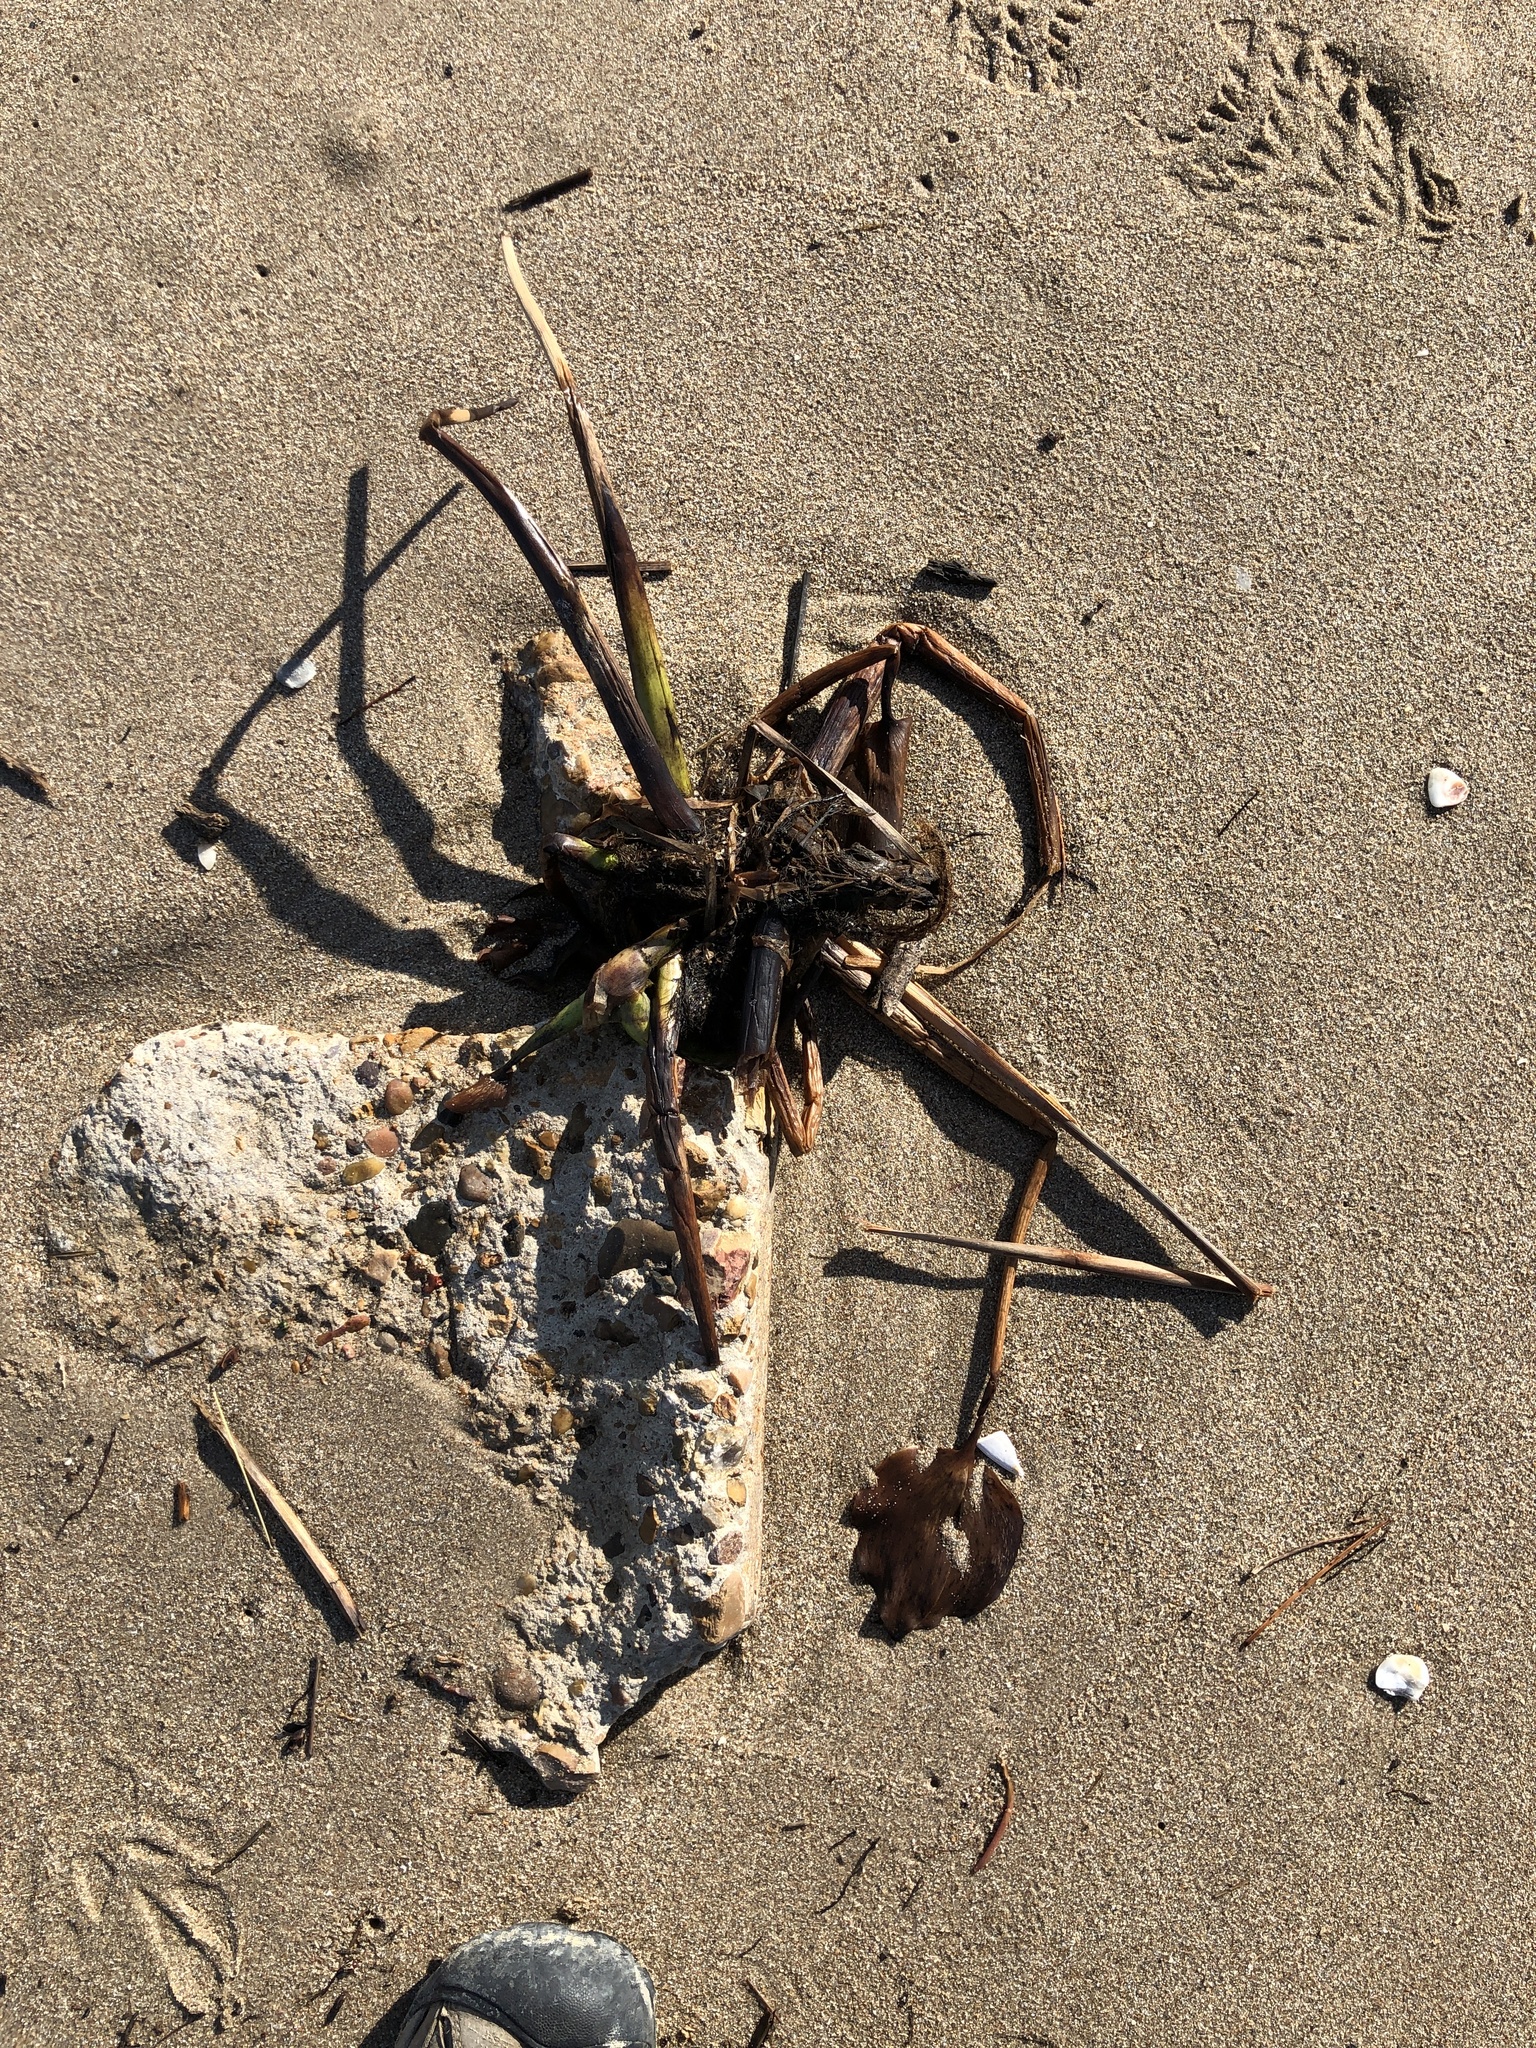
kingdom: Plantae
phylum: Tracheophyta
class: Liliopsida
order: Commelinales
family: Pontederiaceae
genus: Pontederia
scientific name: Pontederia crassipes
